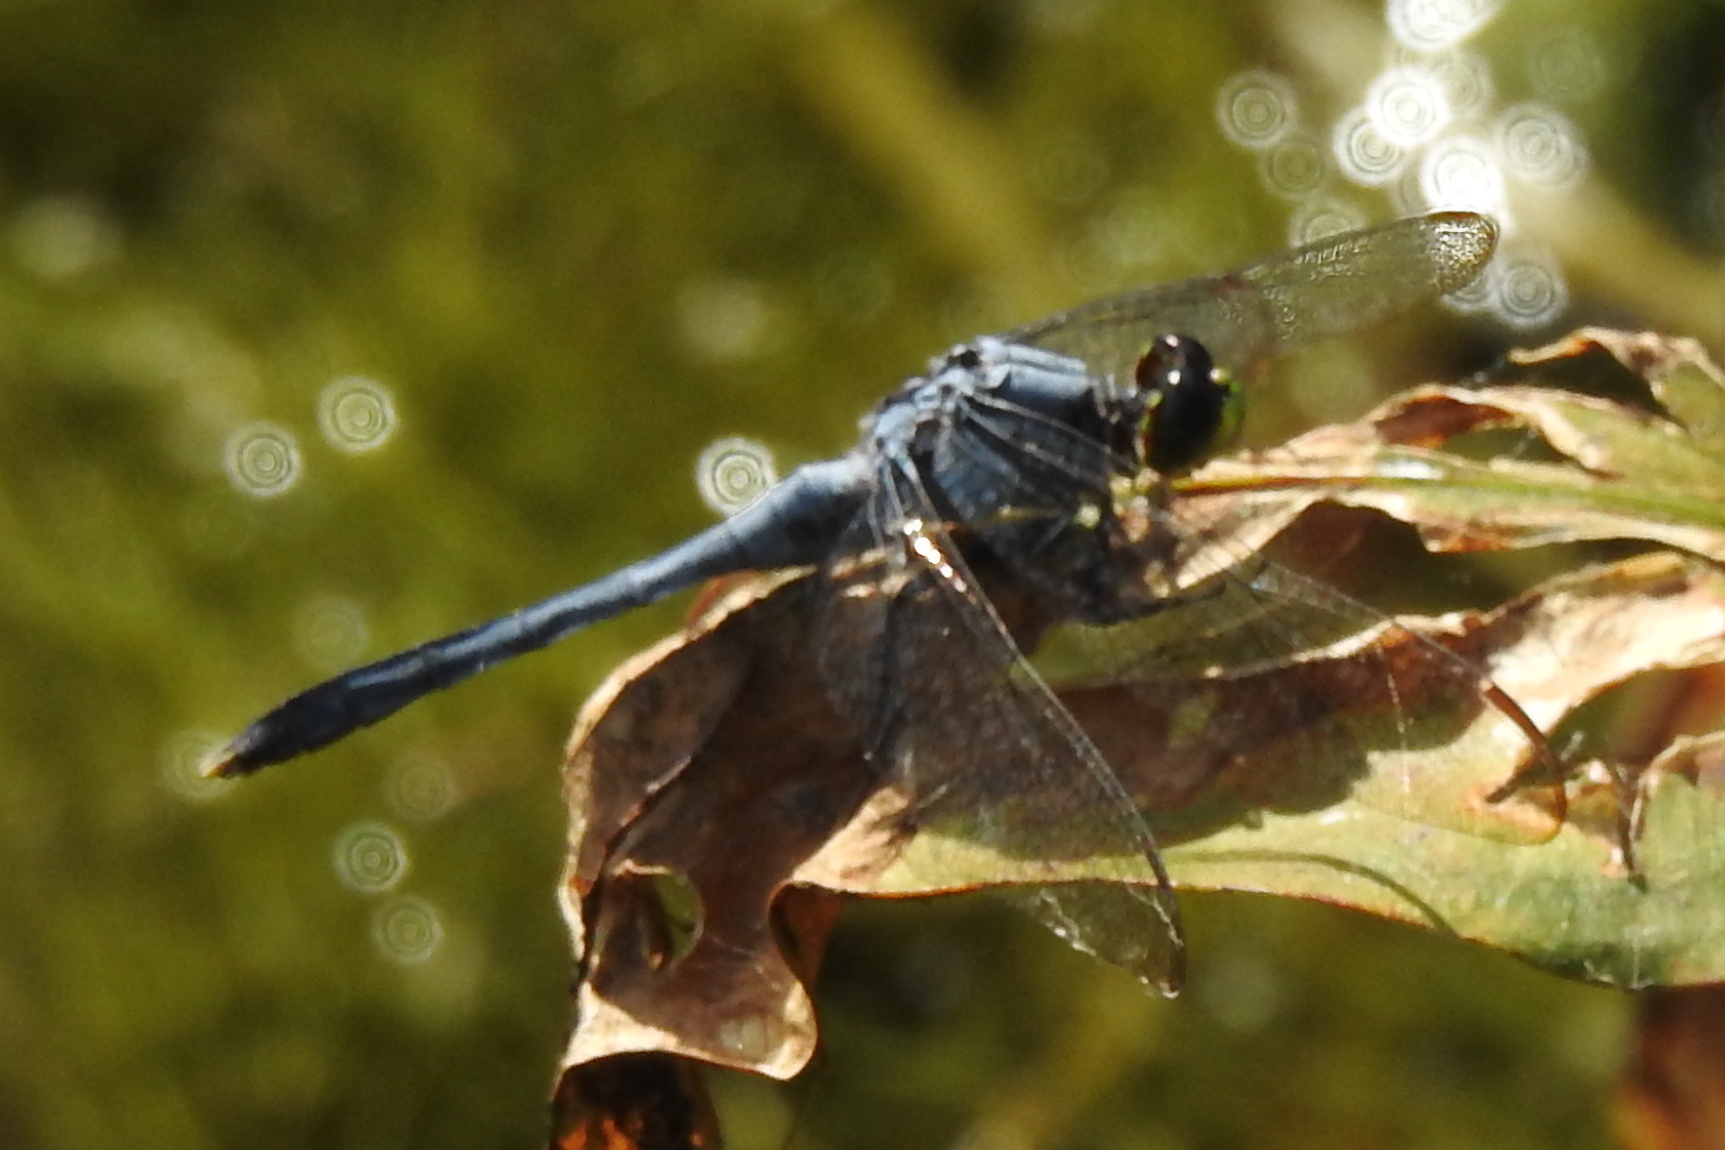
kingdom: Animalia
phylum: Arthropoda
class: Insecta
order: Odonata
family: Libellulidae
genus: Erythemis
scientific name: Erythemis simplicicollis
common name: Eastern pondhawk
